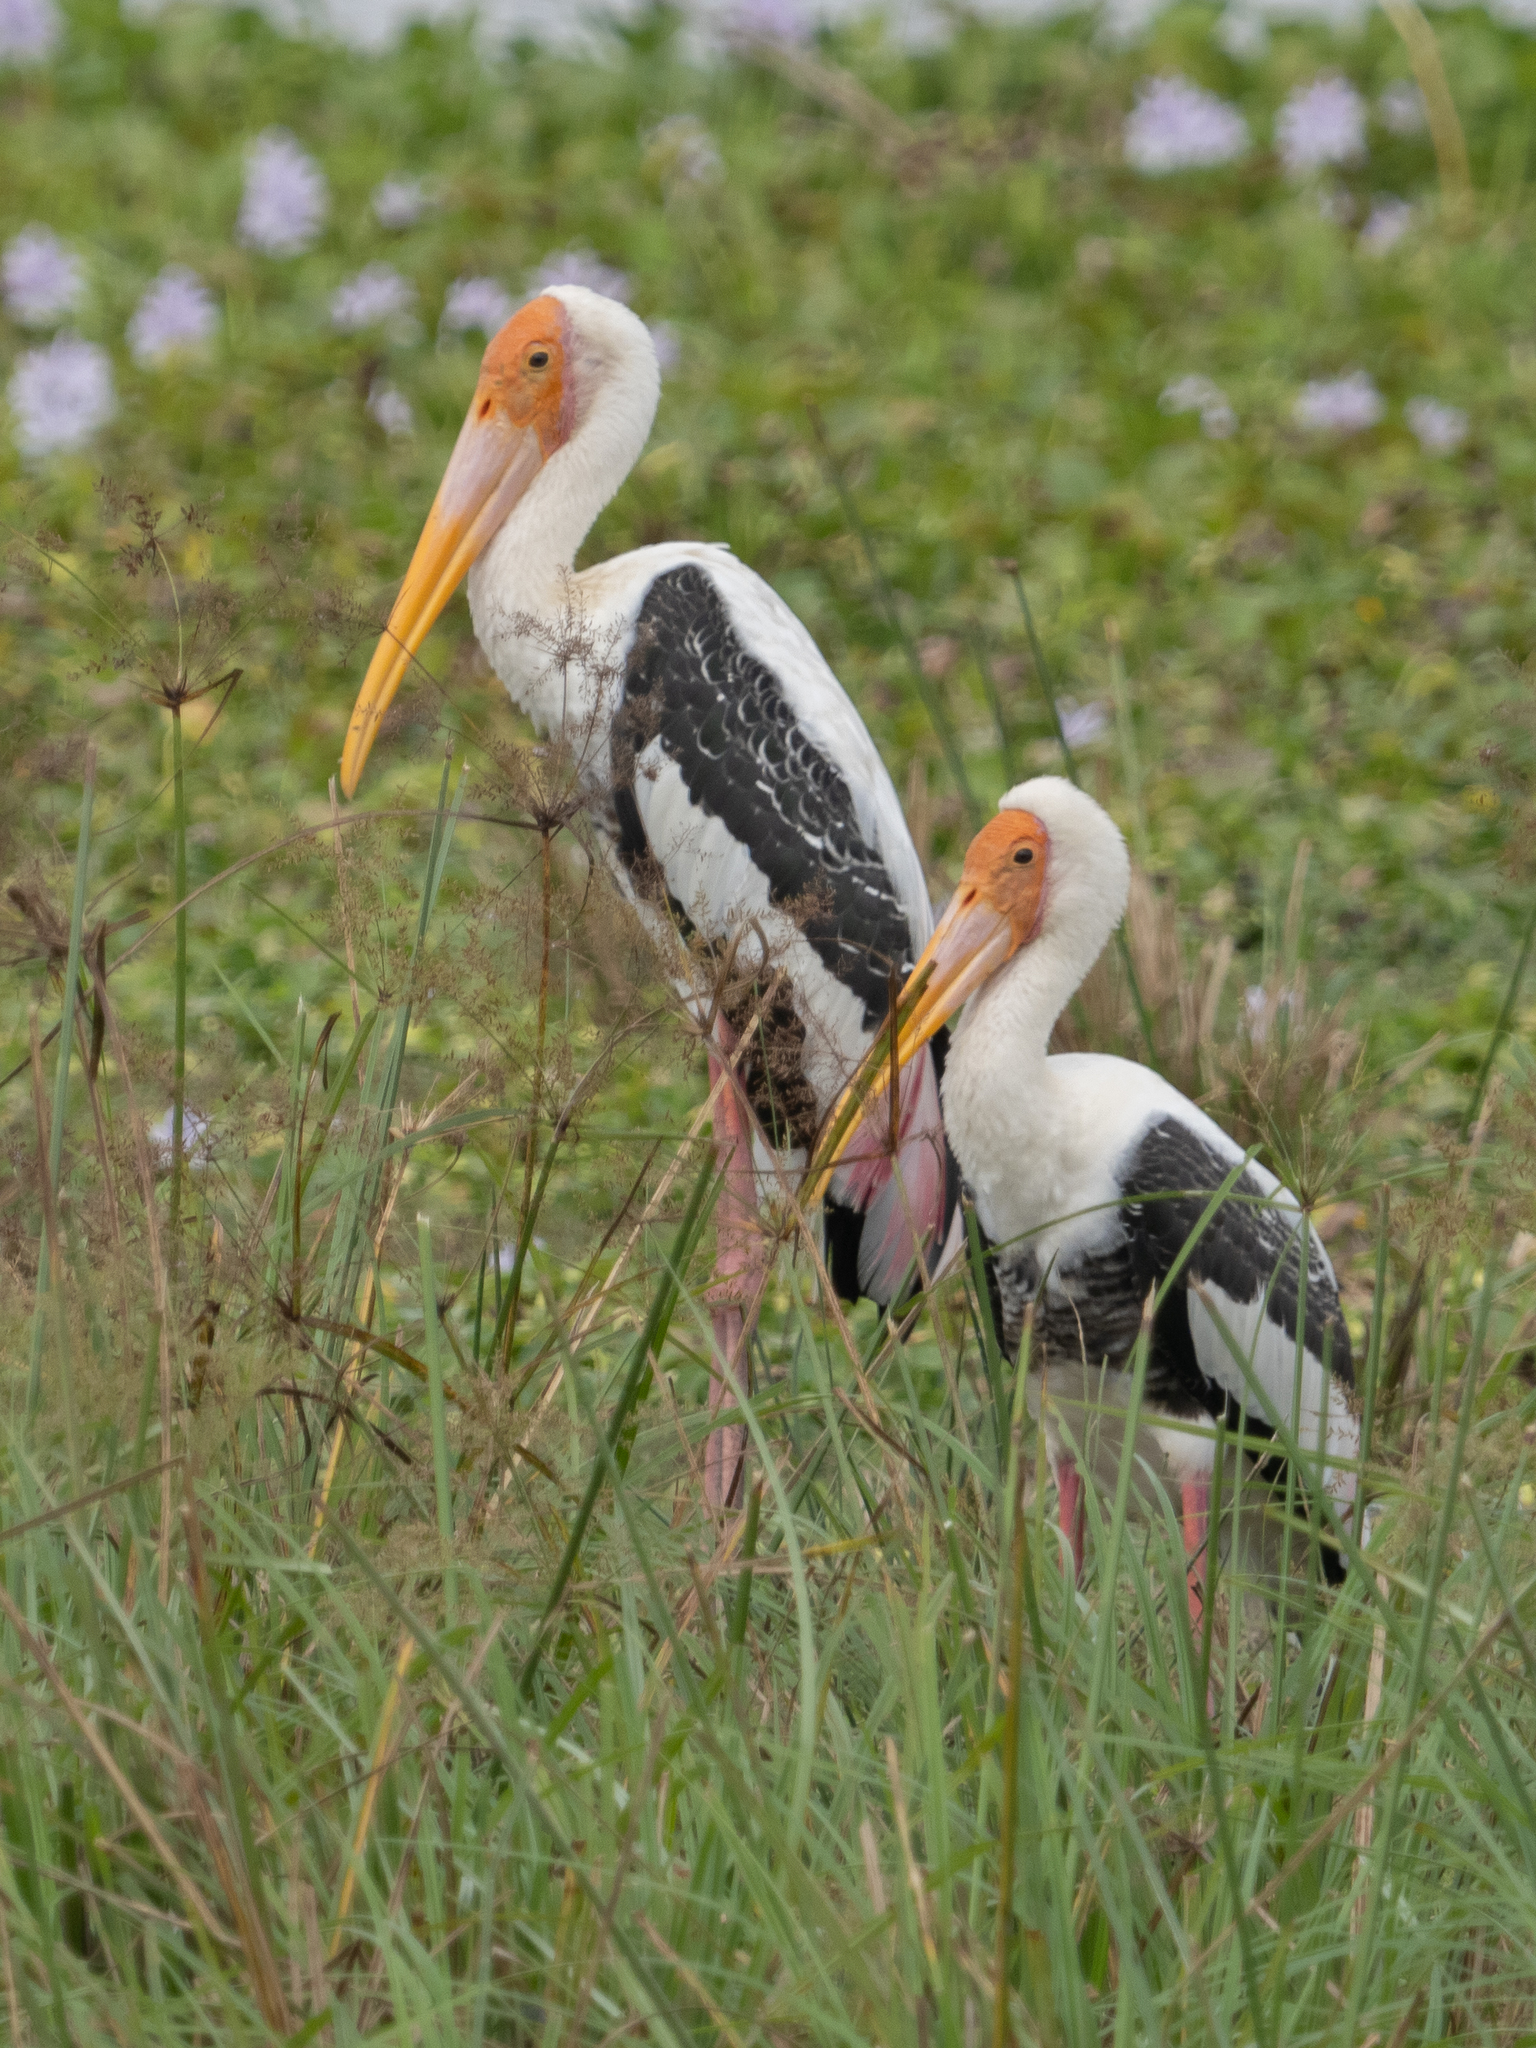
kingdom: Animalia
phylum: Chordata
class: Aves
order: Ciconiiformes
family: Ciconiidae
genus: Mycteria
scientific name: Mycteria leucocephala
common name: Painted stork
